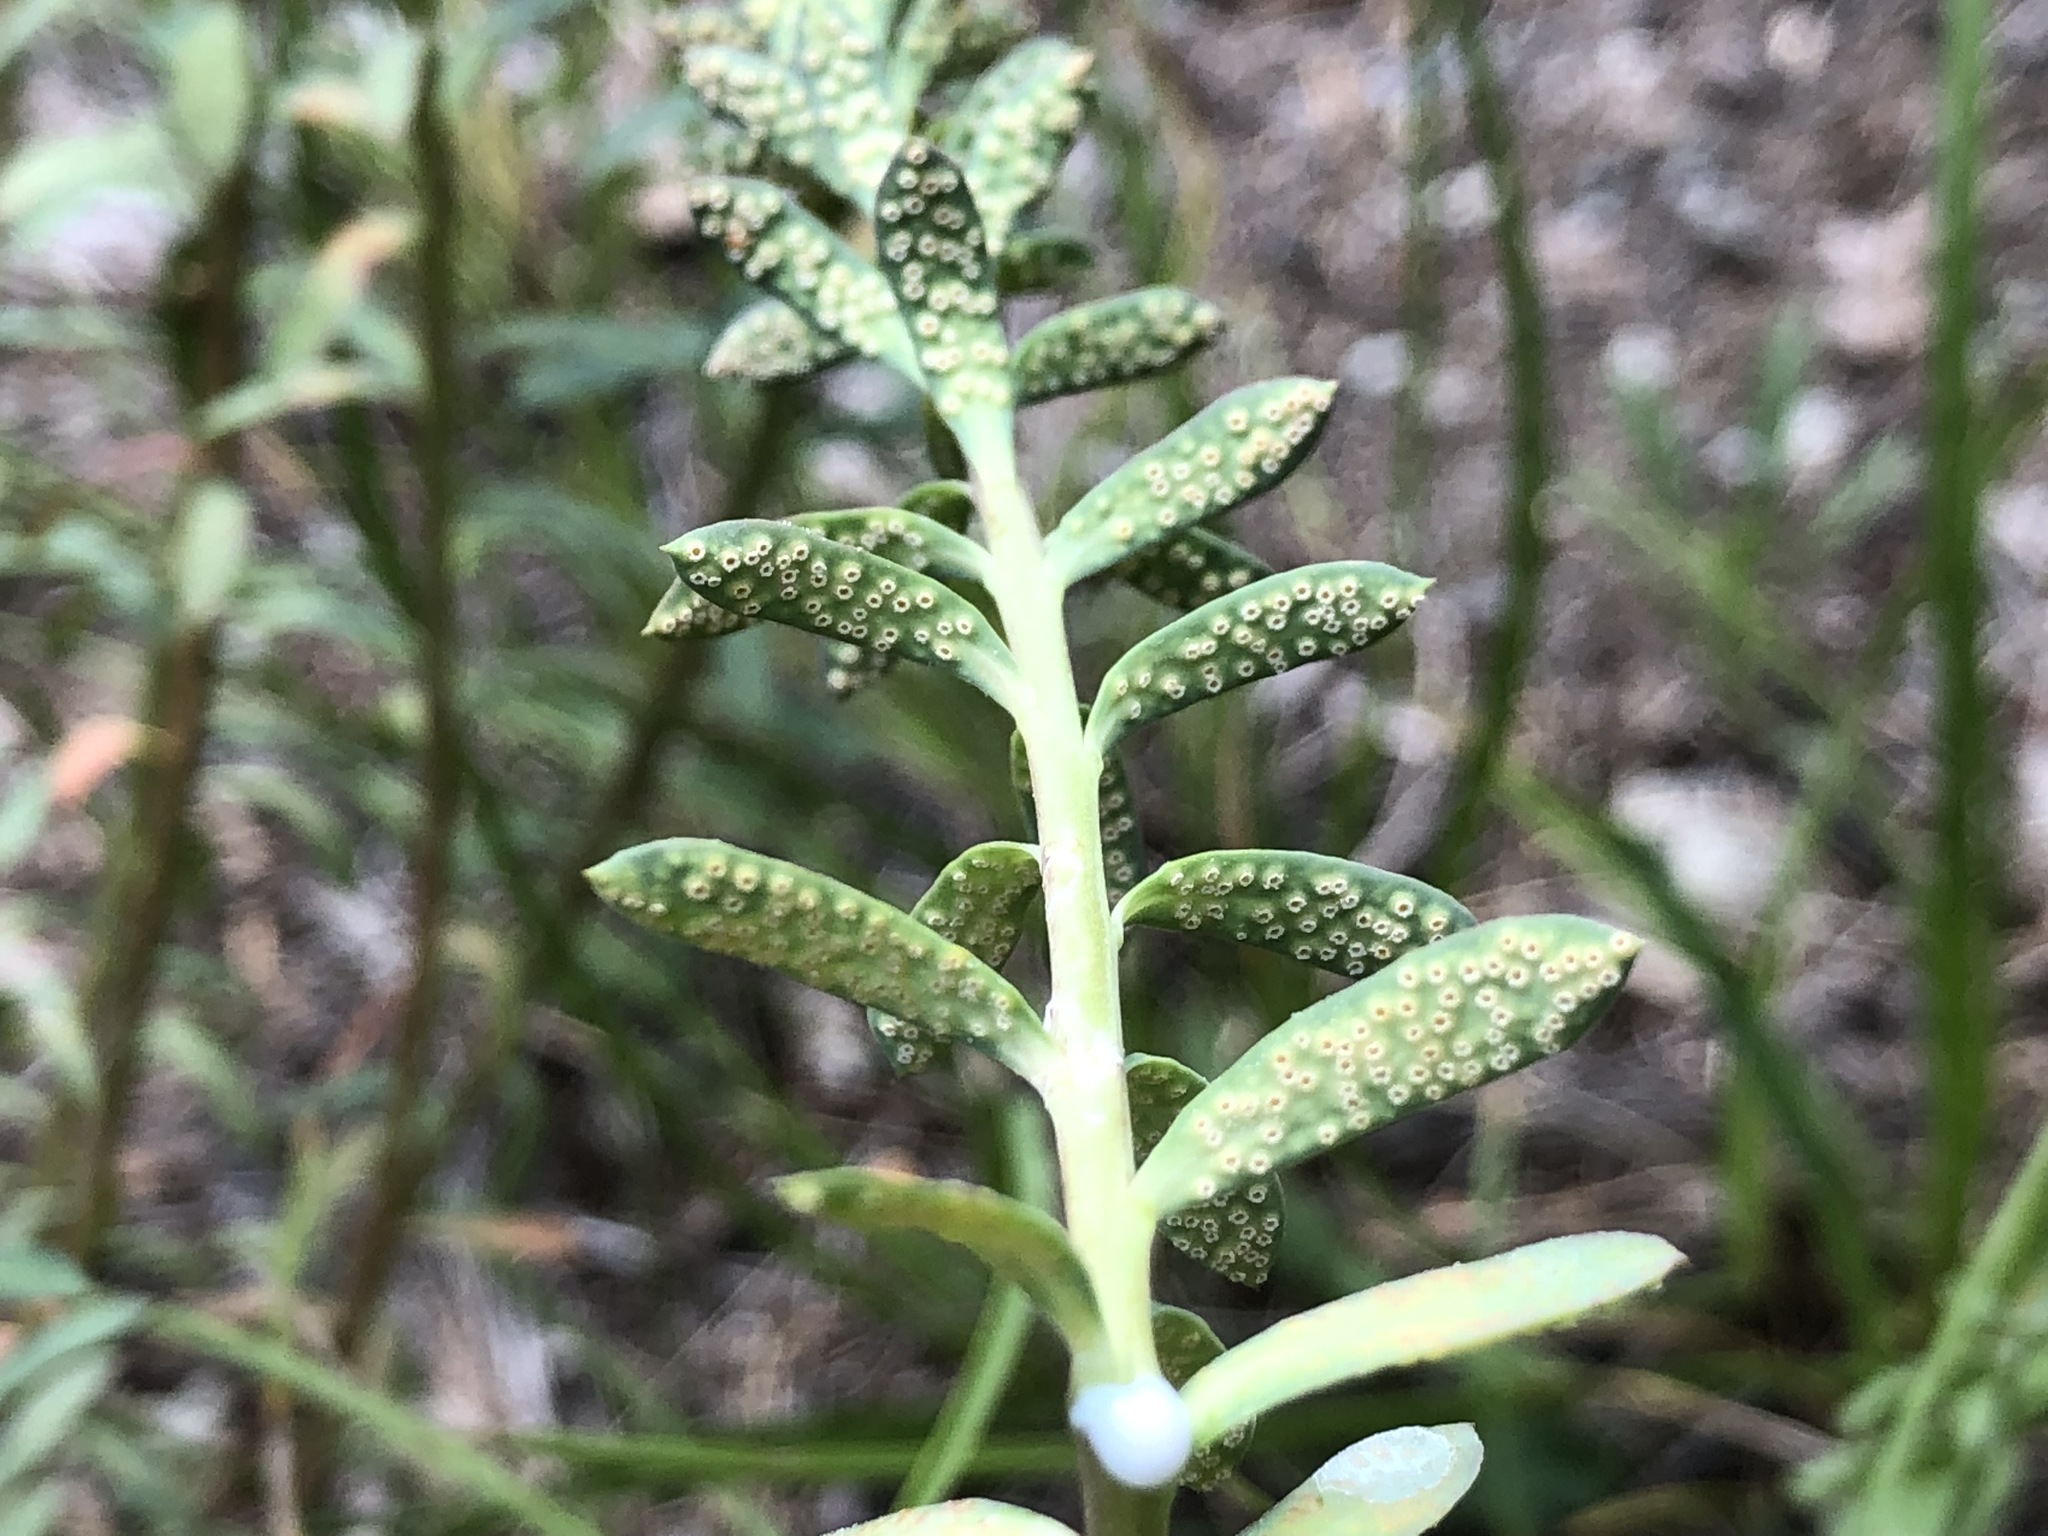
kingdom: Fungi
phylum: Basidiomycota
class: Pucciniomycetes
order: Pucciniales
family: Pucciniaceae
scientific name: Pucciniaceae
